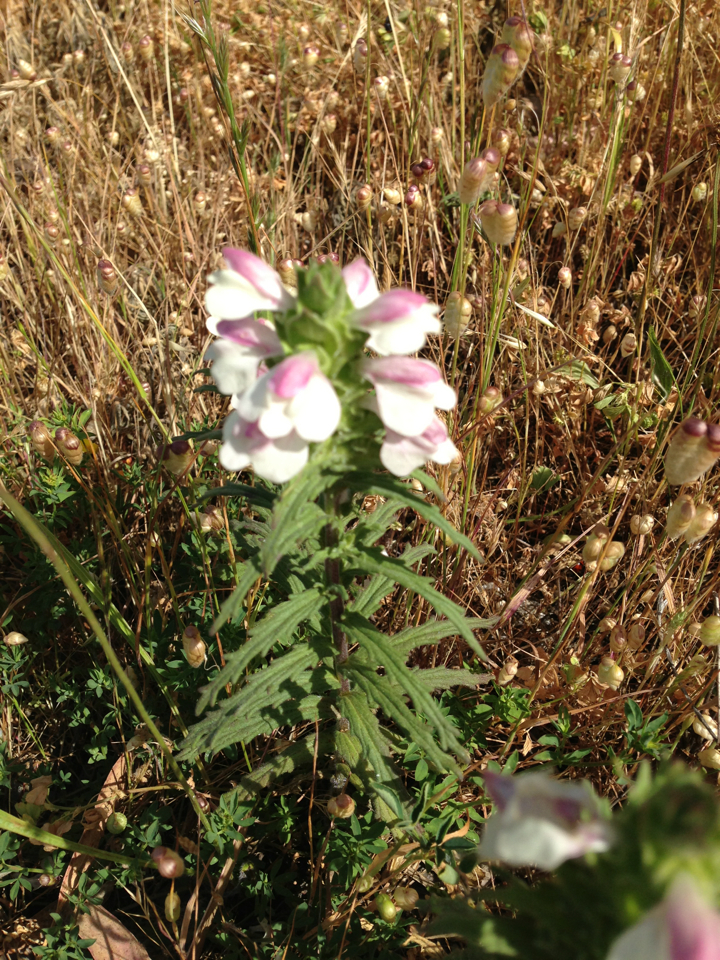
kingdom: Plantae
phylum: Tracheophyta
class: Magnoliopsida
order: Lamiales
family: Orobanchaceae
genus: Bellardia
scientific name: Bellardia trixago
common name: Mediterranean lineseed
